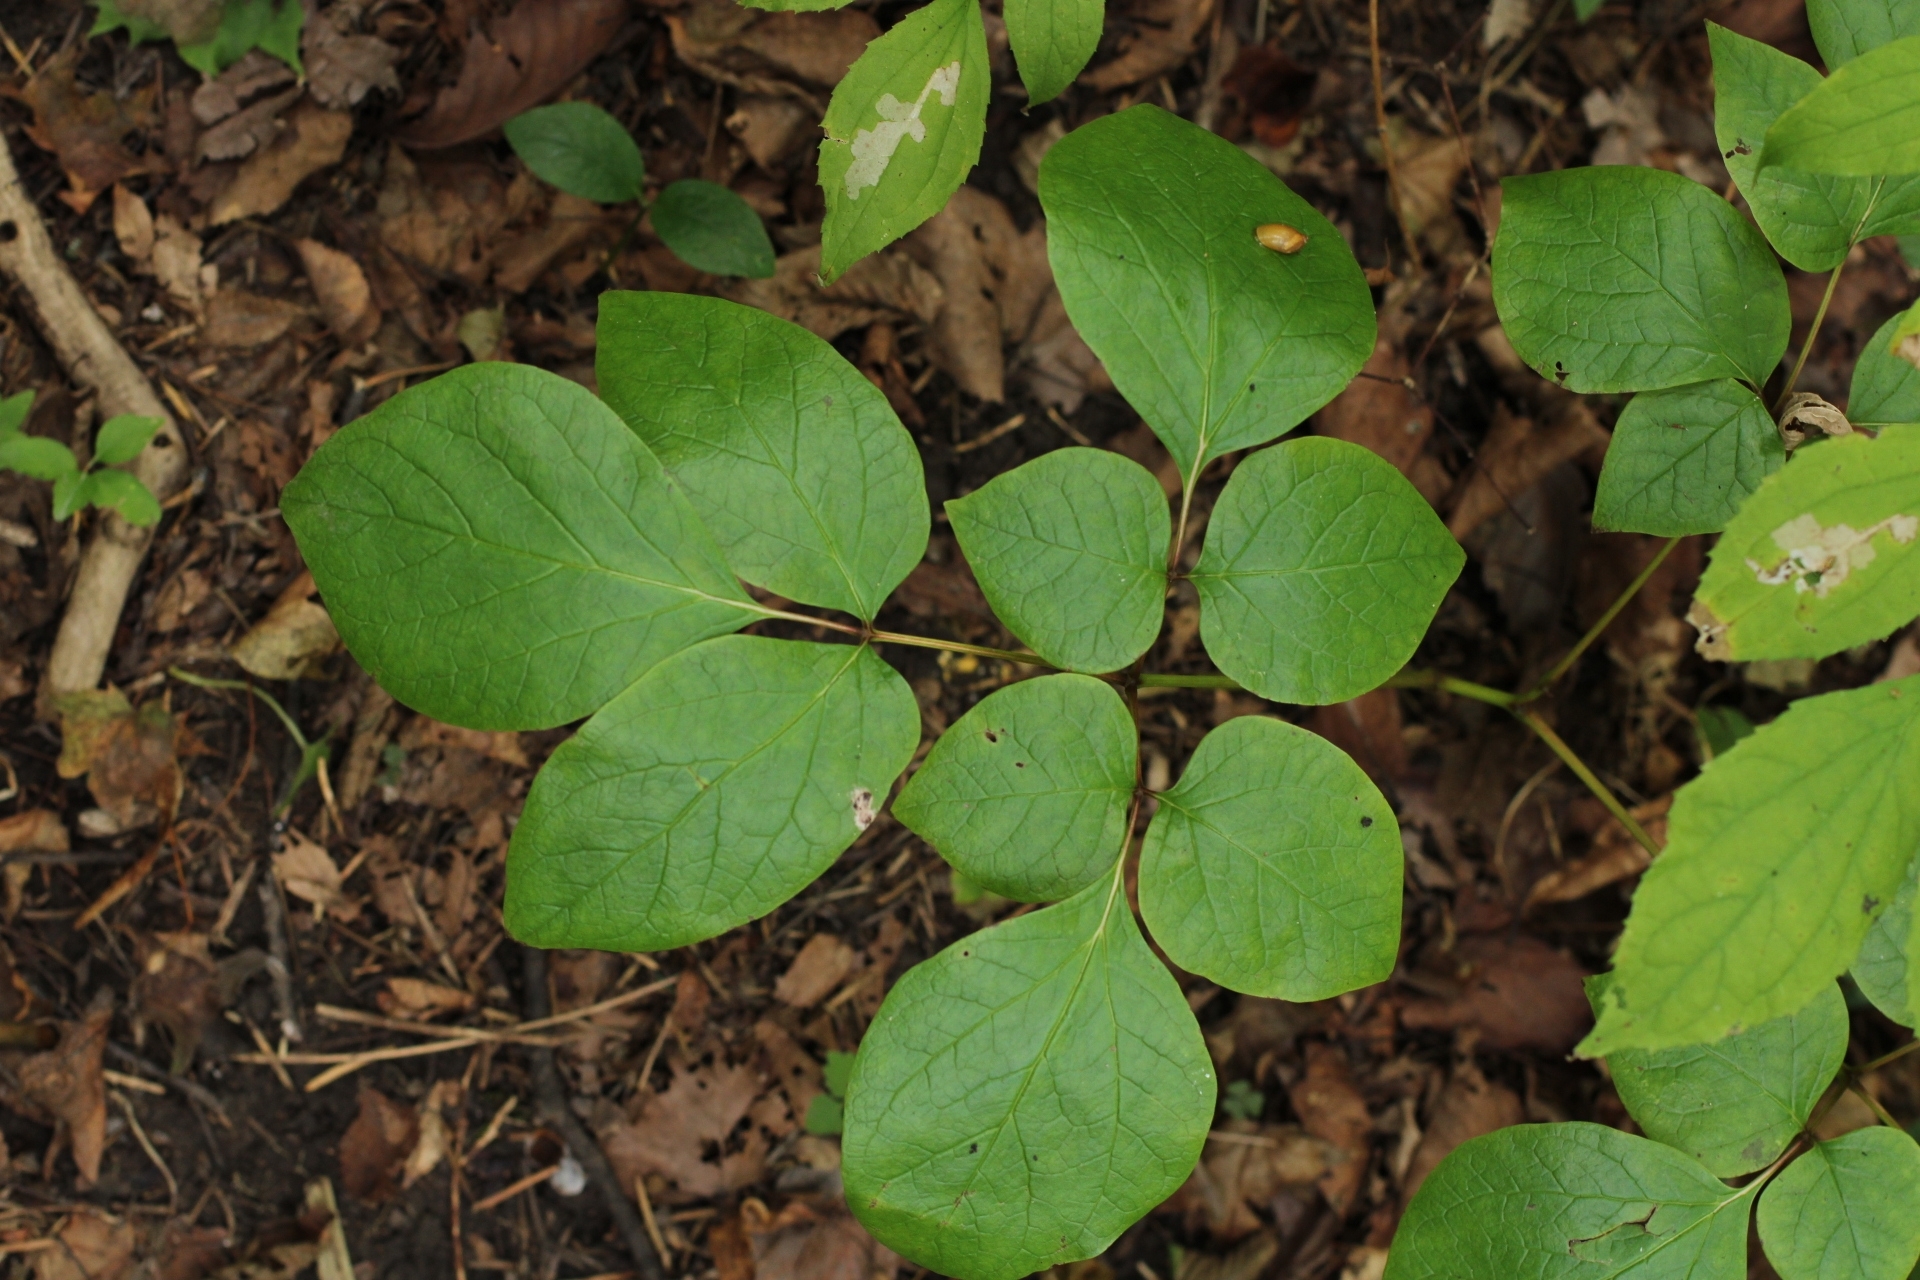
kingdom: Plantae
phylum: Tracheophyta
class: Magnoliopsida
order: Saxifragales
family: Paeoniaceae
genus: Paeonia
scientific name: Paeonia obovata
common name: Chinese peony
